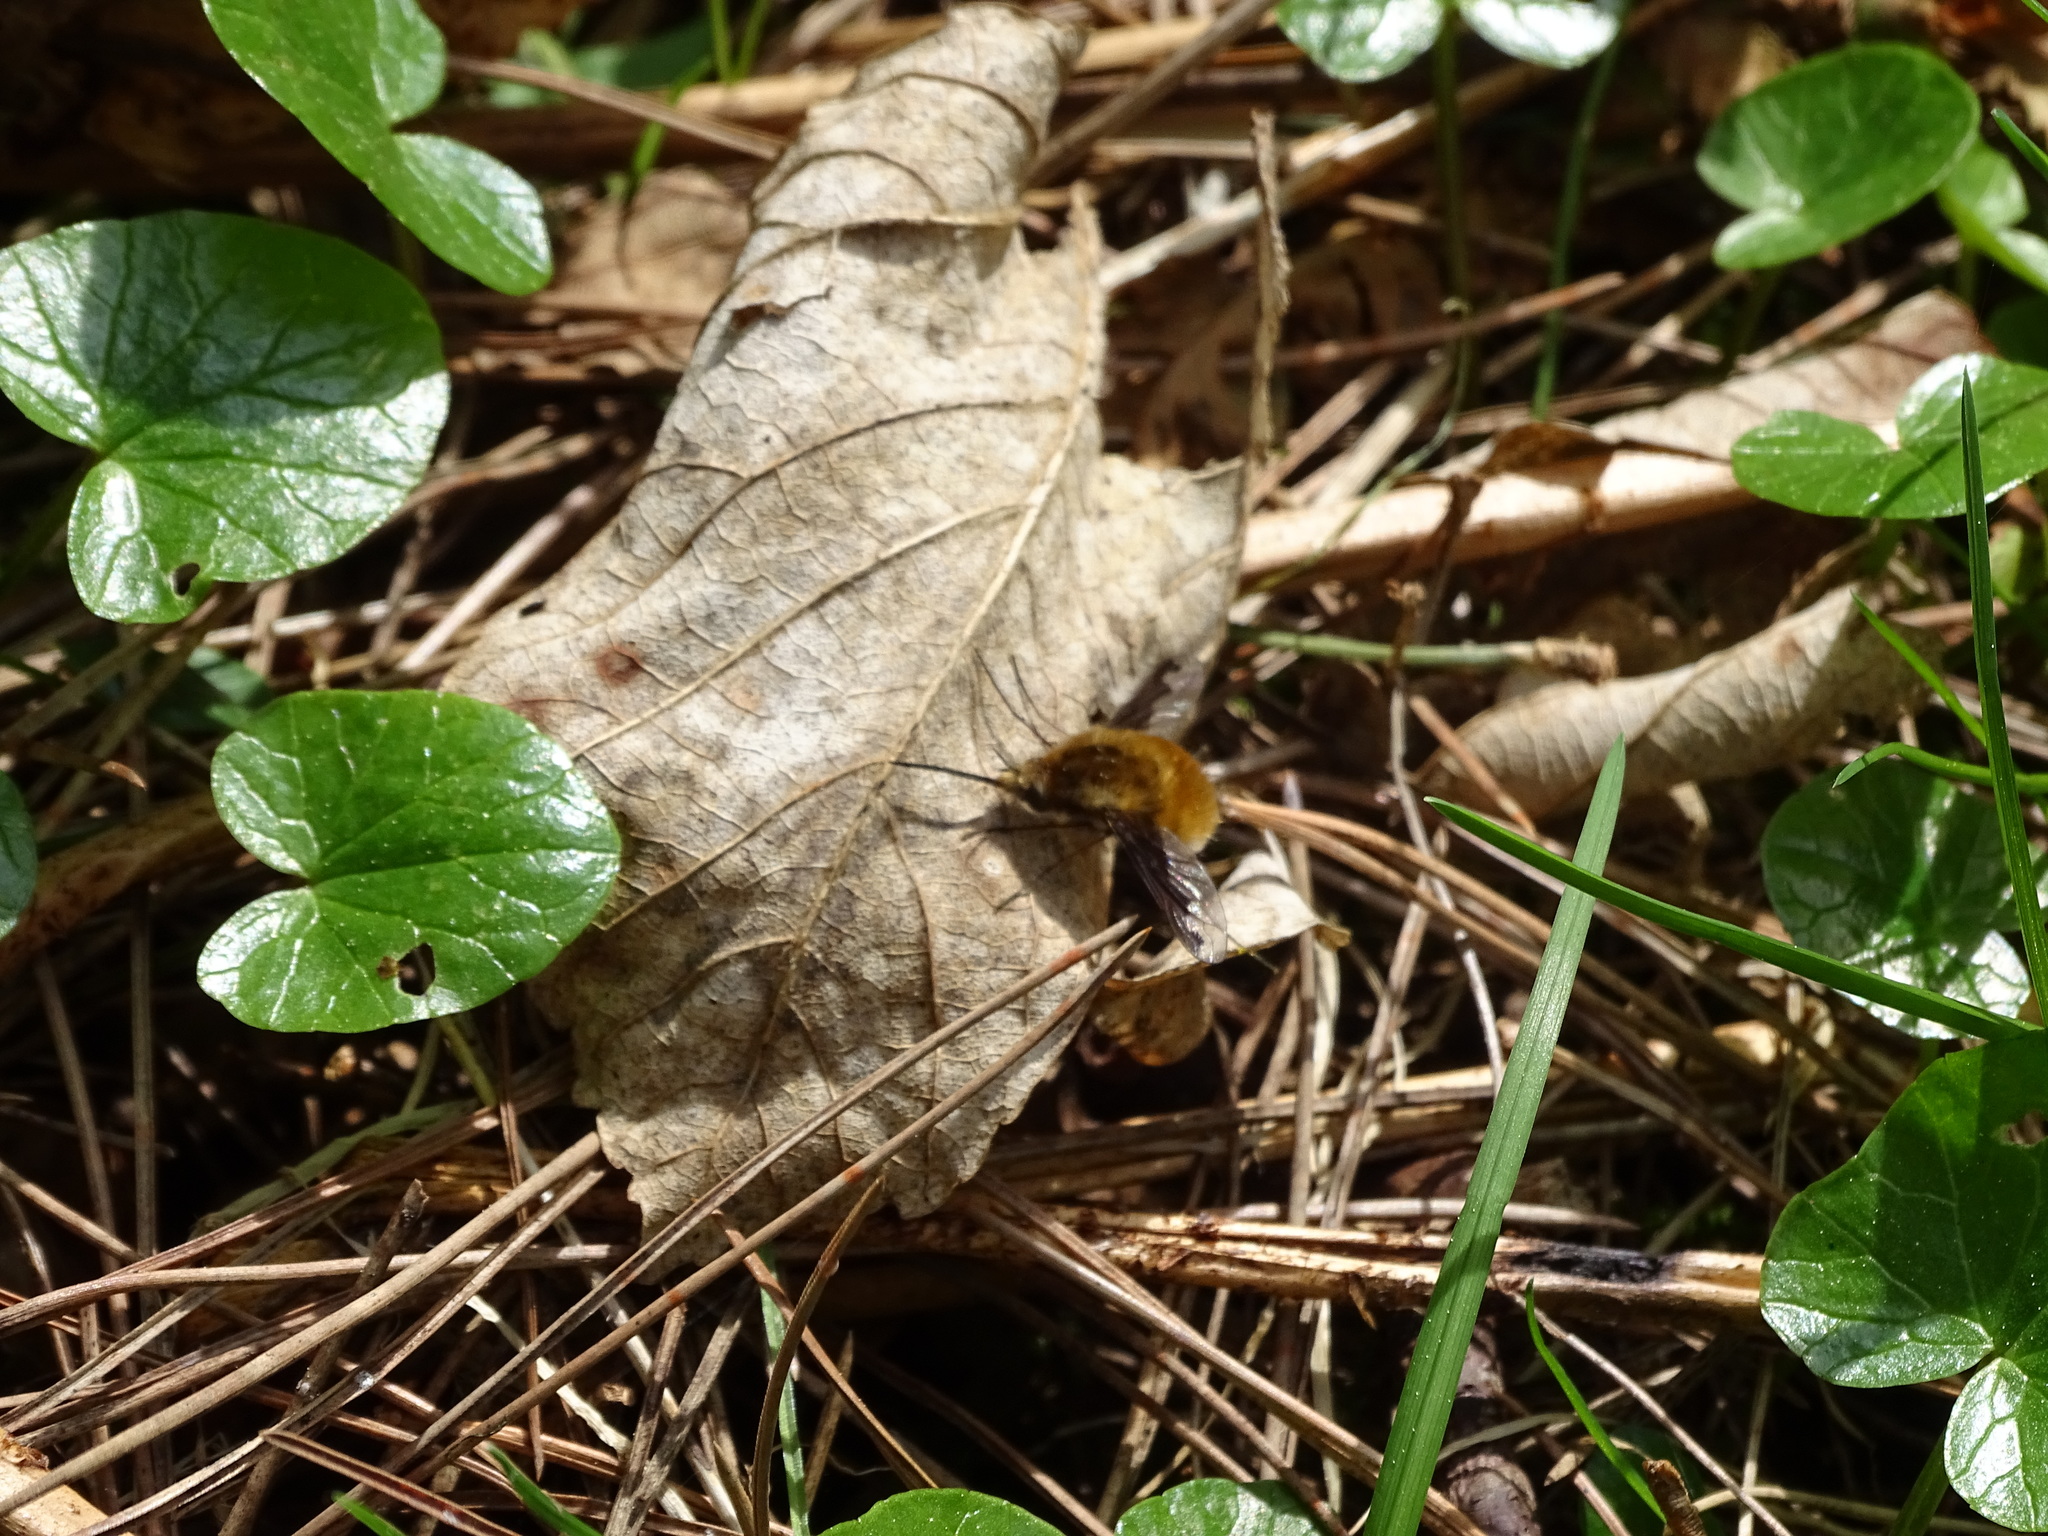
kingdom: Animalia
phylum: Arthropoda
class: Insecta
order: Diptera
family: Bombyliidae
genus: Bombylius
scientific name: Bombylius major
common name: Bee fly
